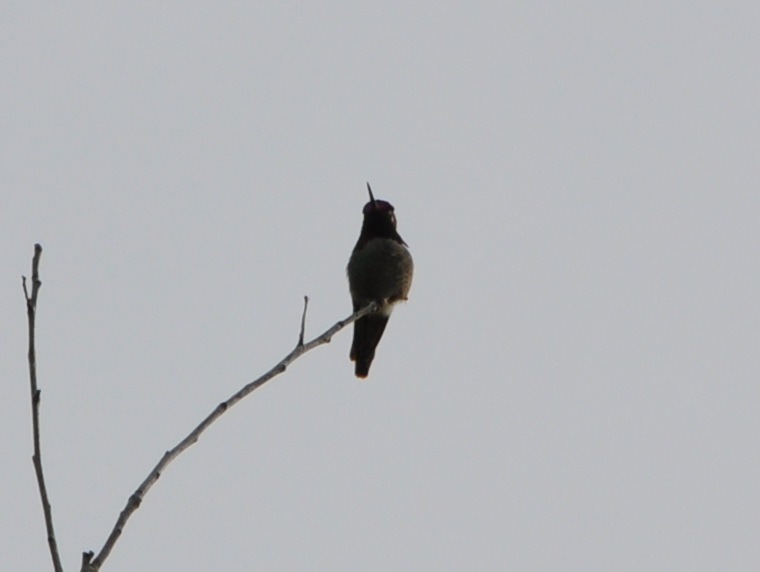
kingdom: Animalia
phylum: Chordata
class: Aves
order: Apodiformes
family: Trochilidae
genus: Calypte
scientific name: Calypte anna
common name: Anna's hummingbird
